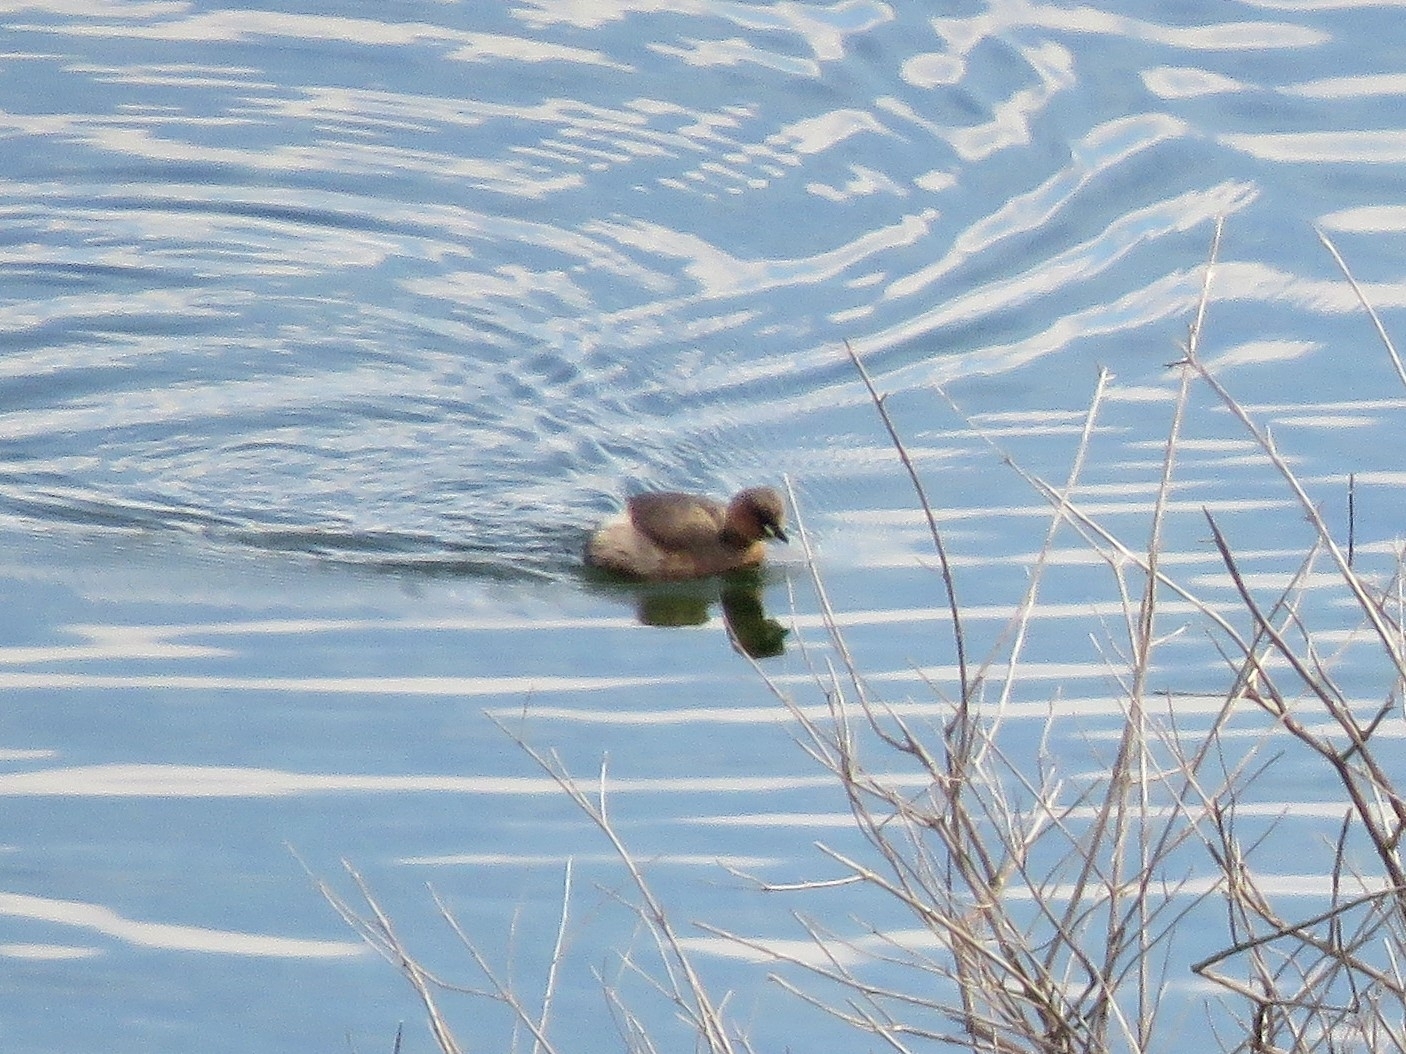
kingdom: Animalia
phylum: Chordata
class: Aves
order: Podicipediformes
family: Podicipedidae
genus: Tachybaptus
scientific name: Tachybaptus ruficollis
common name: Little grebe
